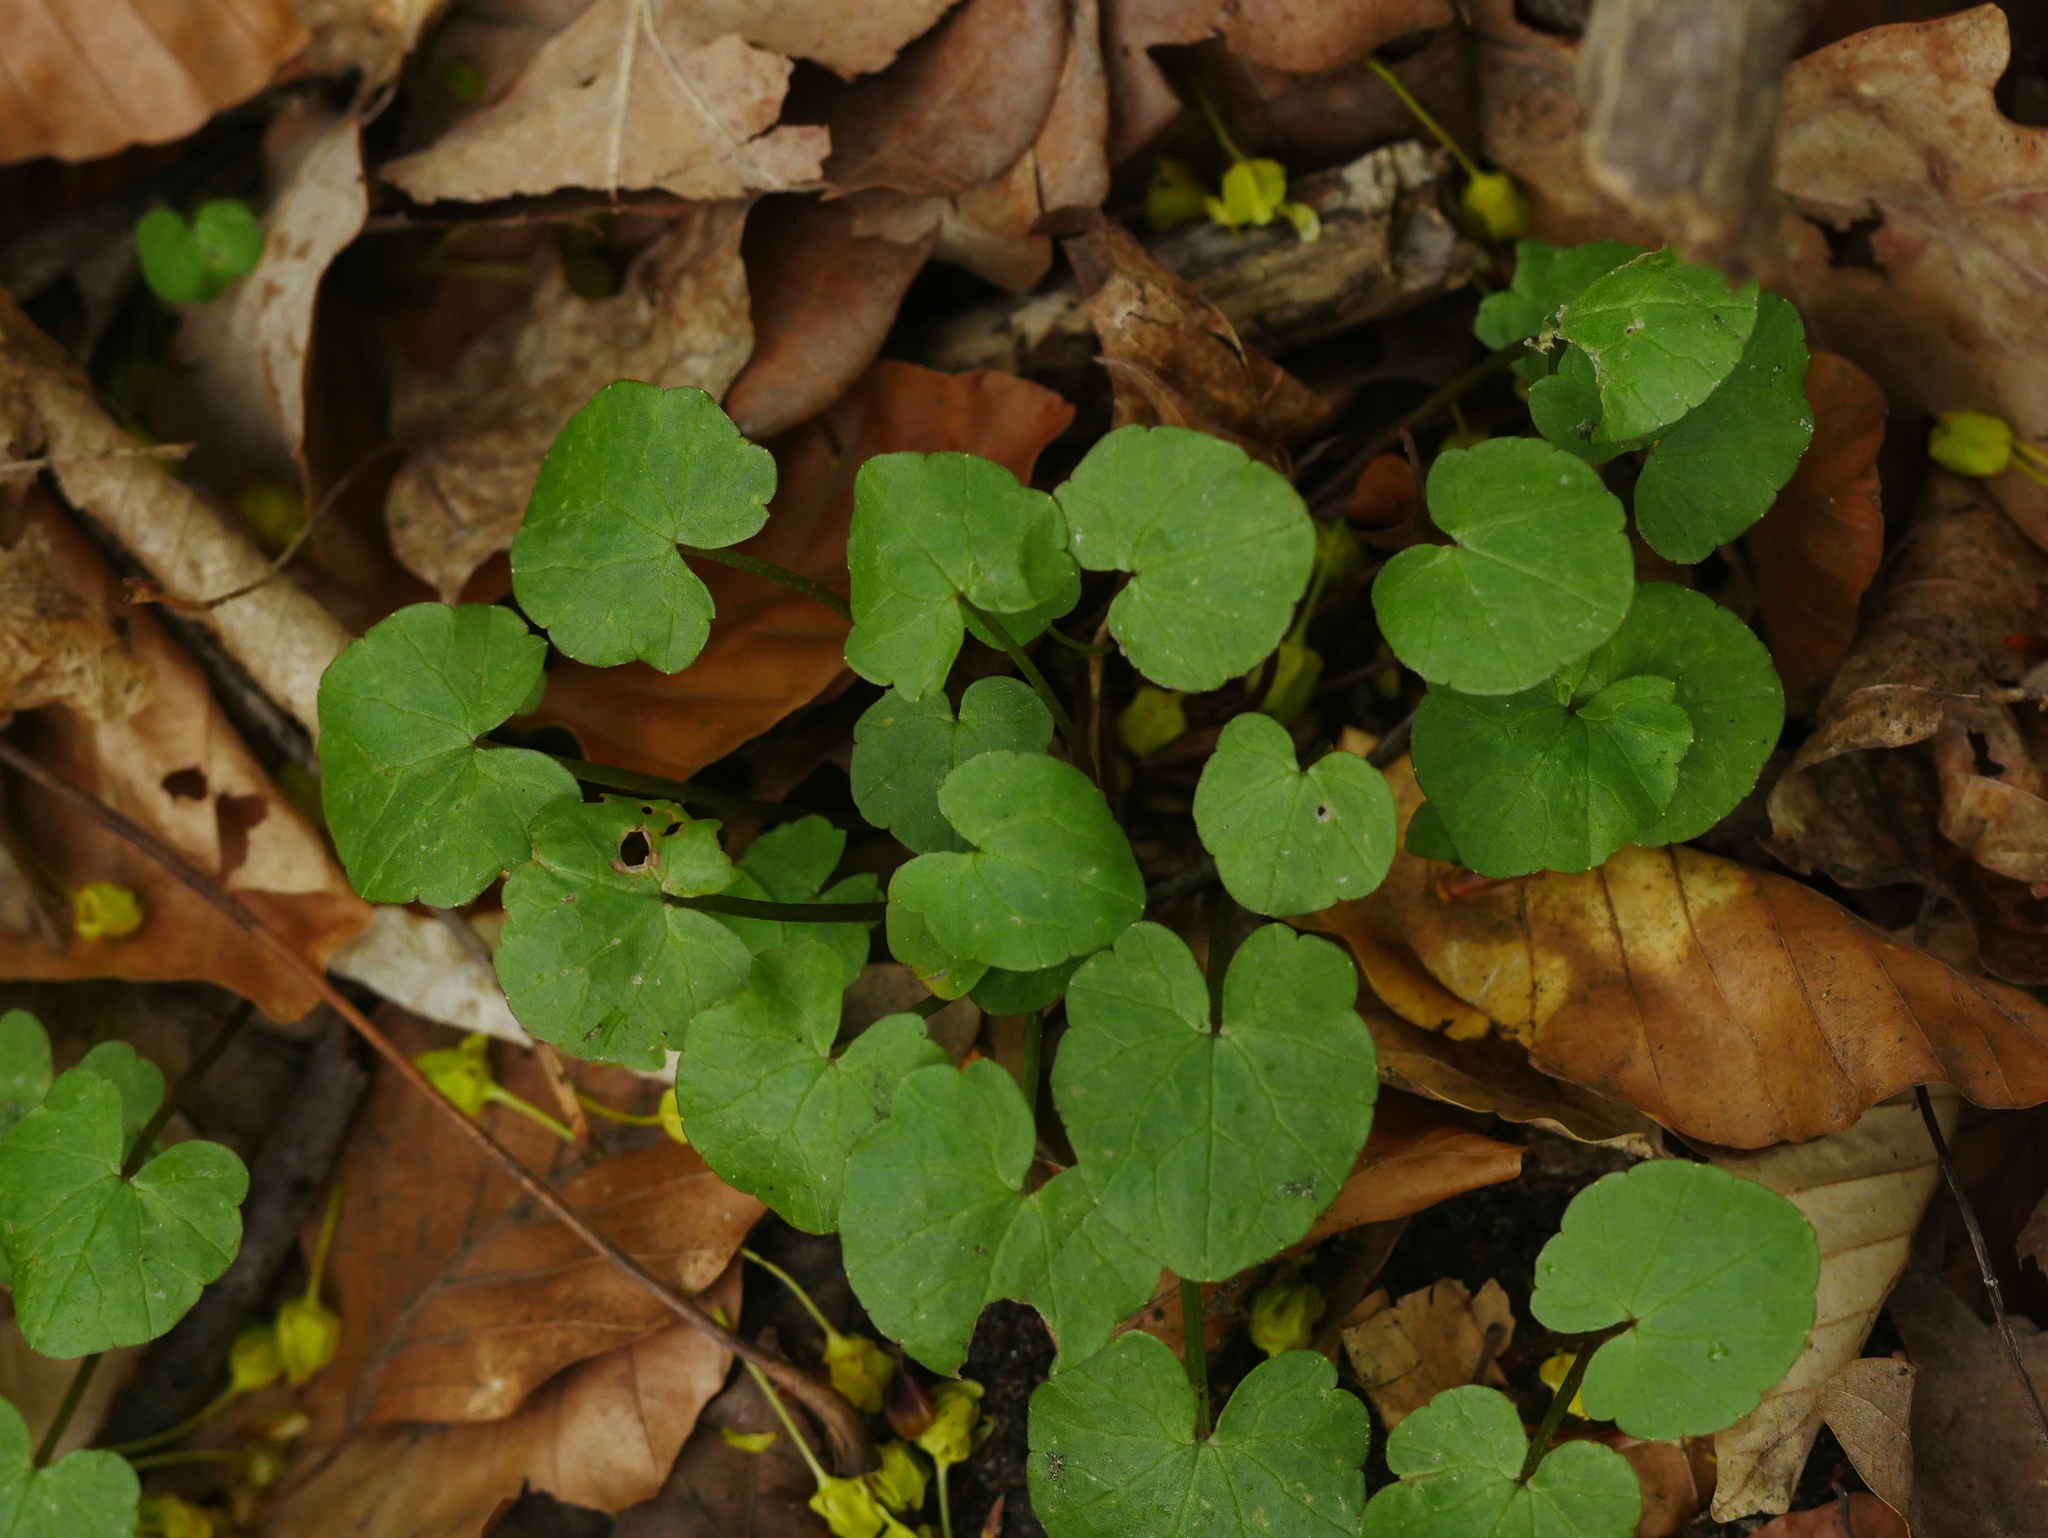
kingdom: Plantae
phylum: Tracheophyta
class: Magnoliopsida
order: Ranunculales
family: Ranunculaceae
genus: Ficaria
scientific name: Ficaria verna
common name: Lesser celandine
